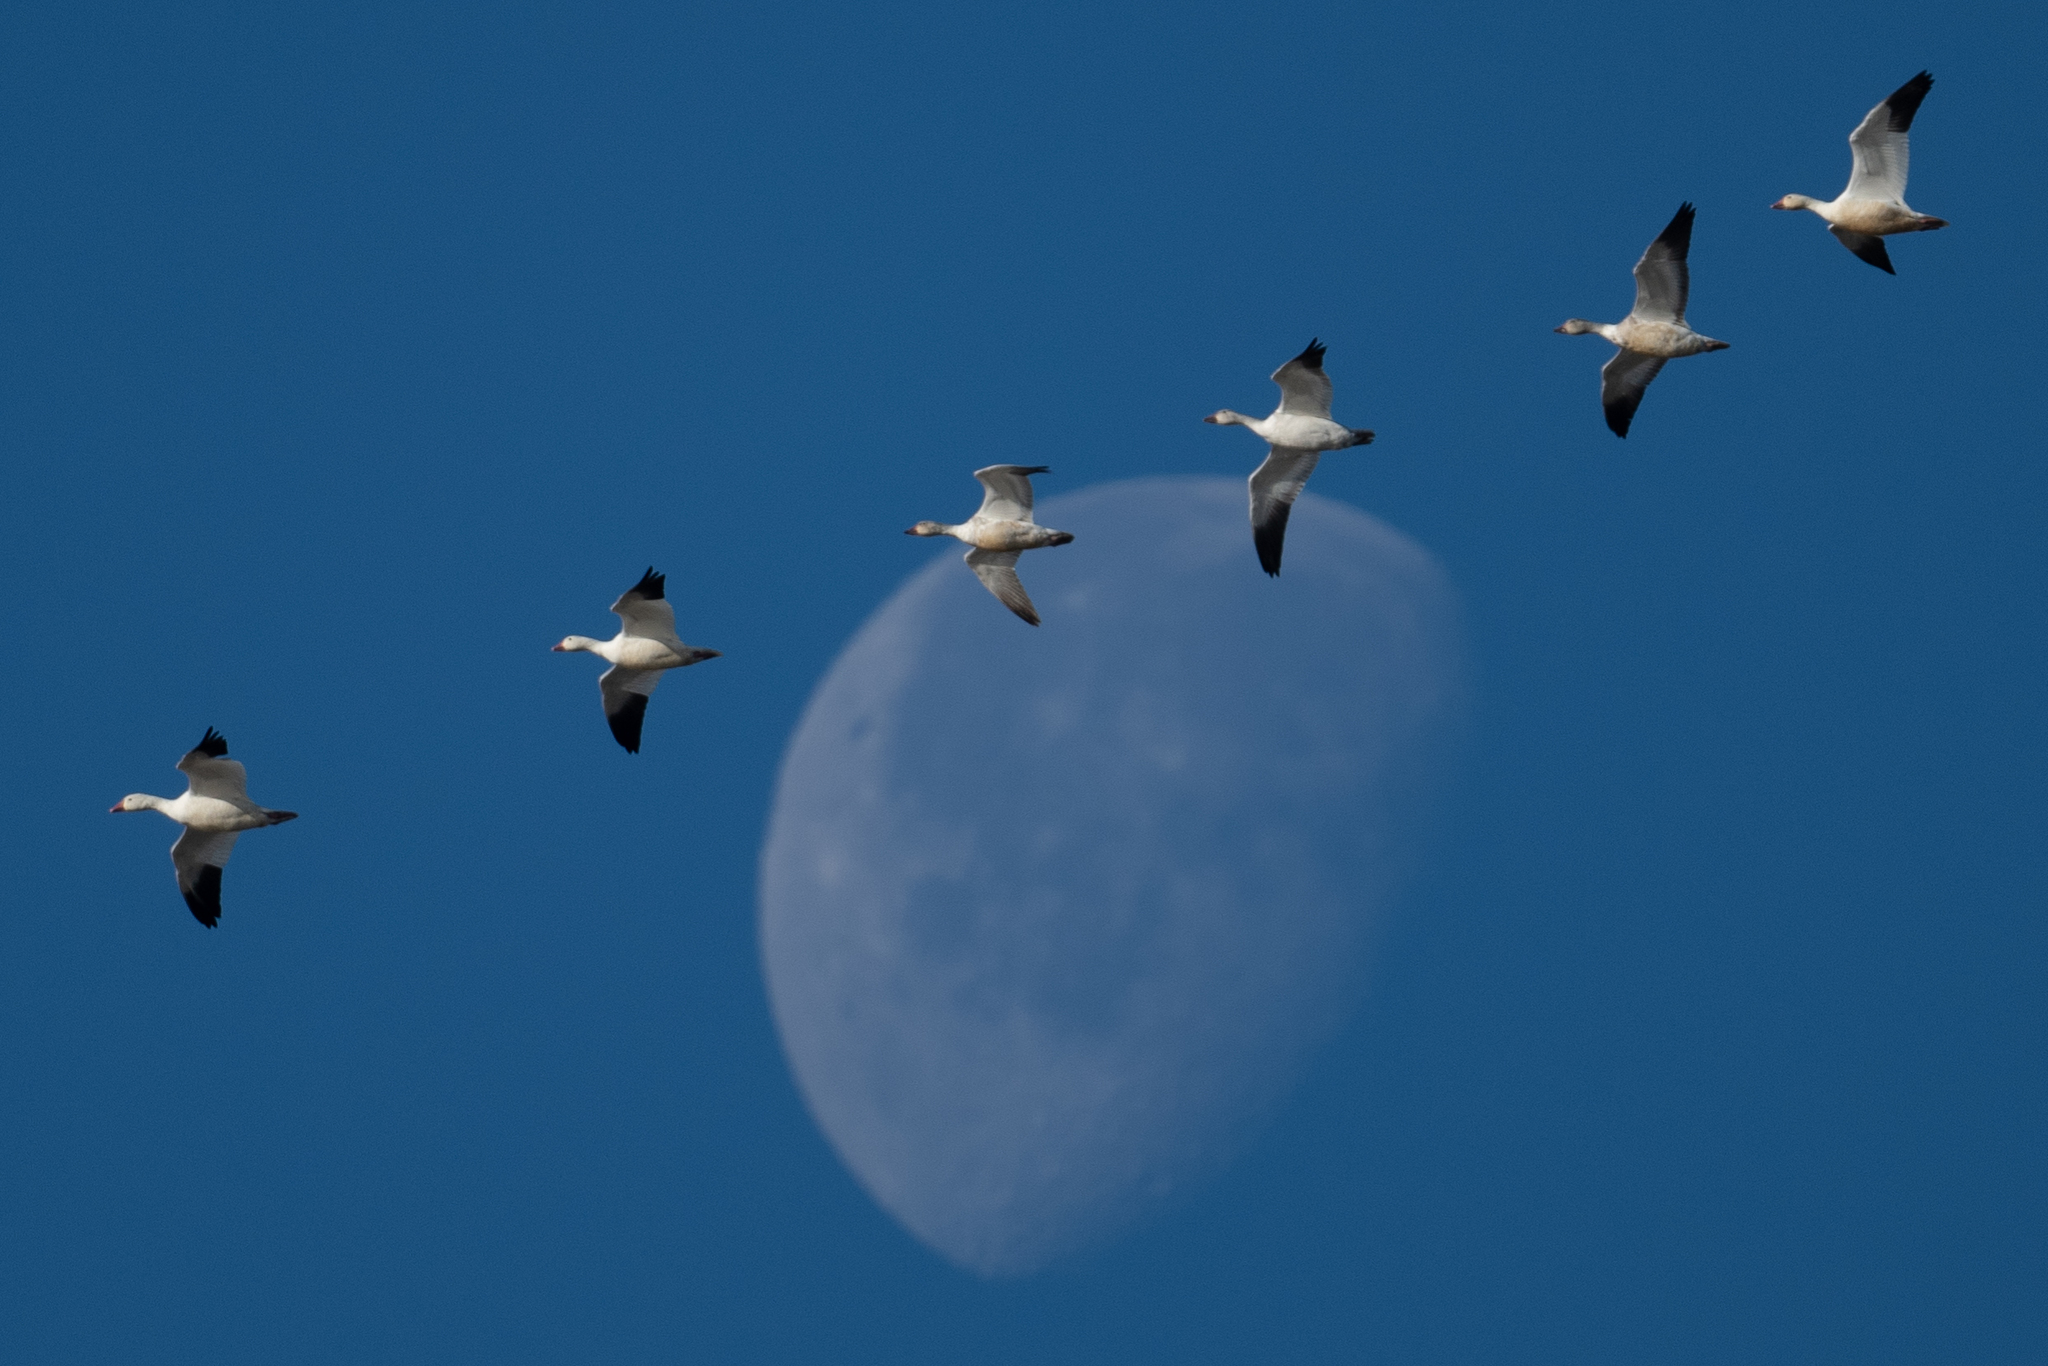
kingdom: Animalia
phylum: Chordata
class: Aves
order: Anseriformes
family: Anatidae
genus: Anser
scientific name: Anser caerulescens
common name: Snow goose
